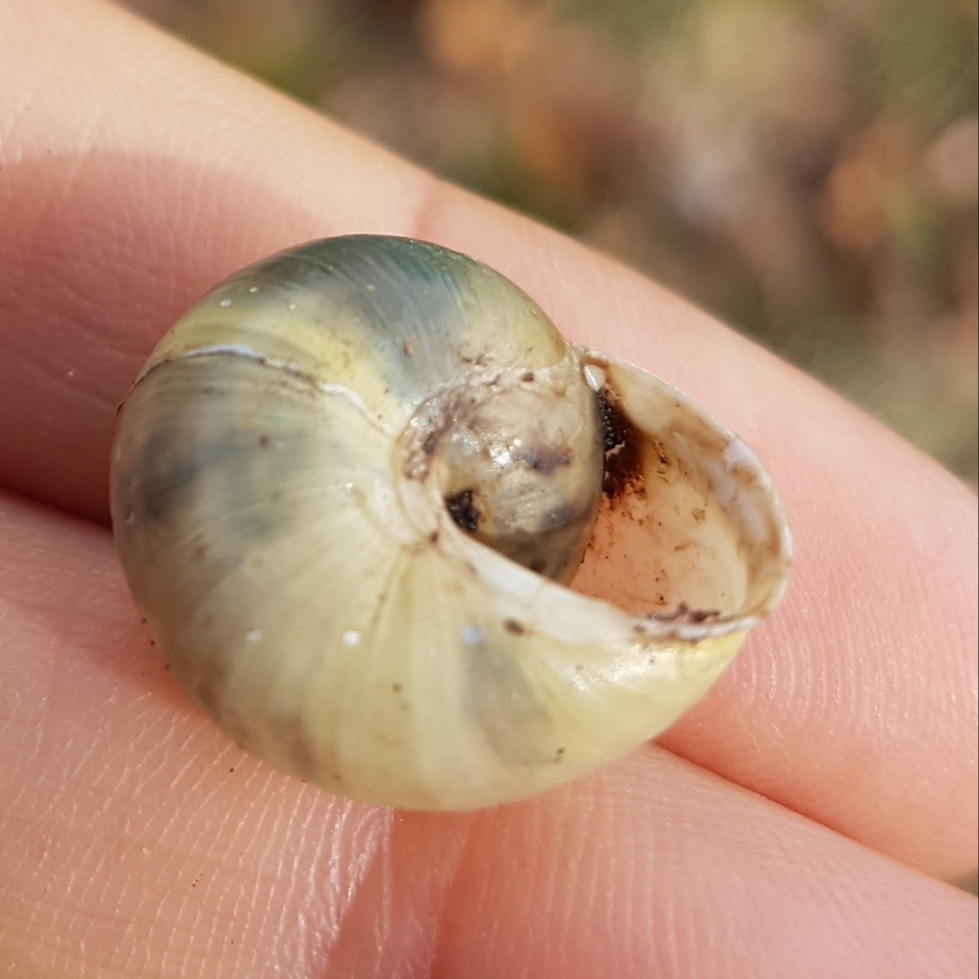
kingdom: Animalia
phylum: Mollusca
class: Gastropoda
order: Stylommatophora
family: Helicidae
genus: Cepaea
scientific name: Cepaea hortensis
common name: White-lip gardensnail
